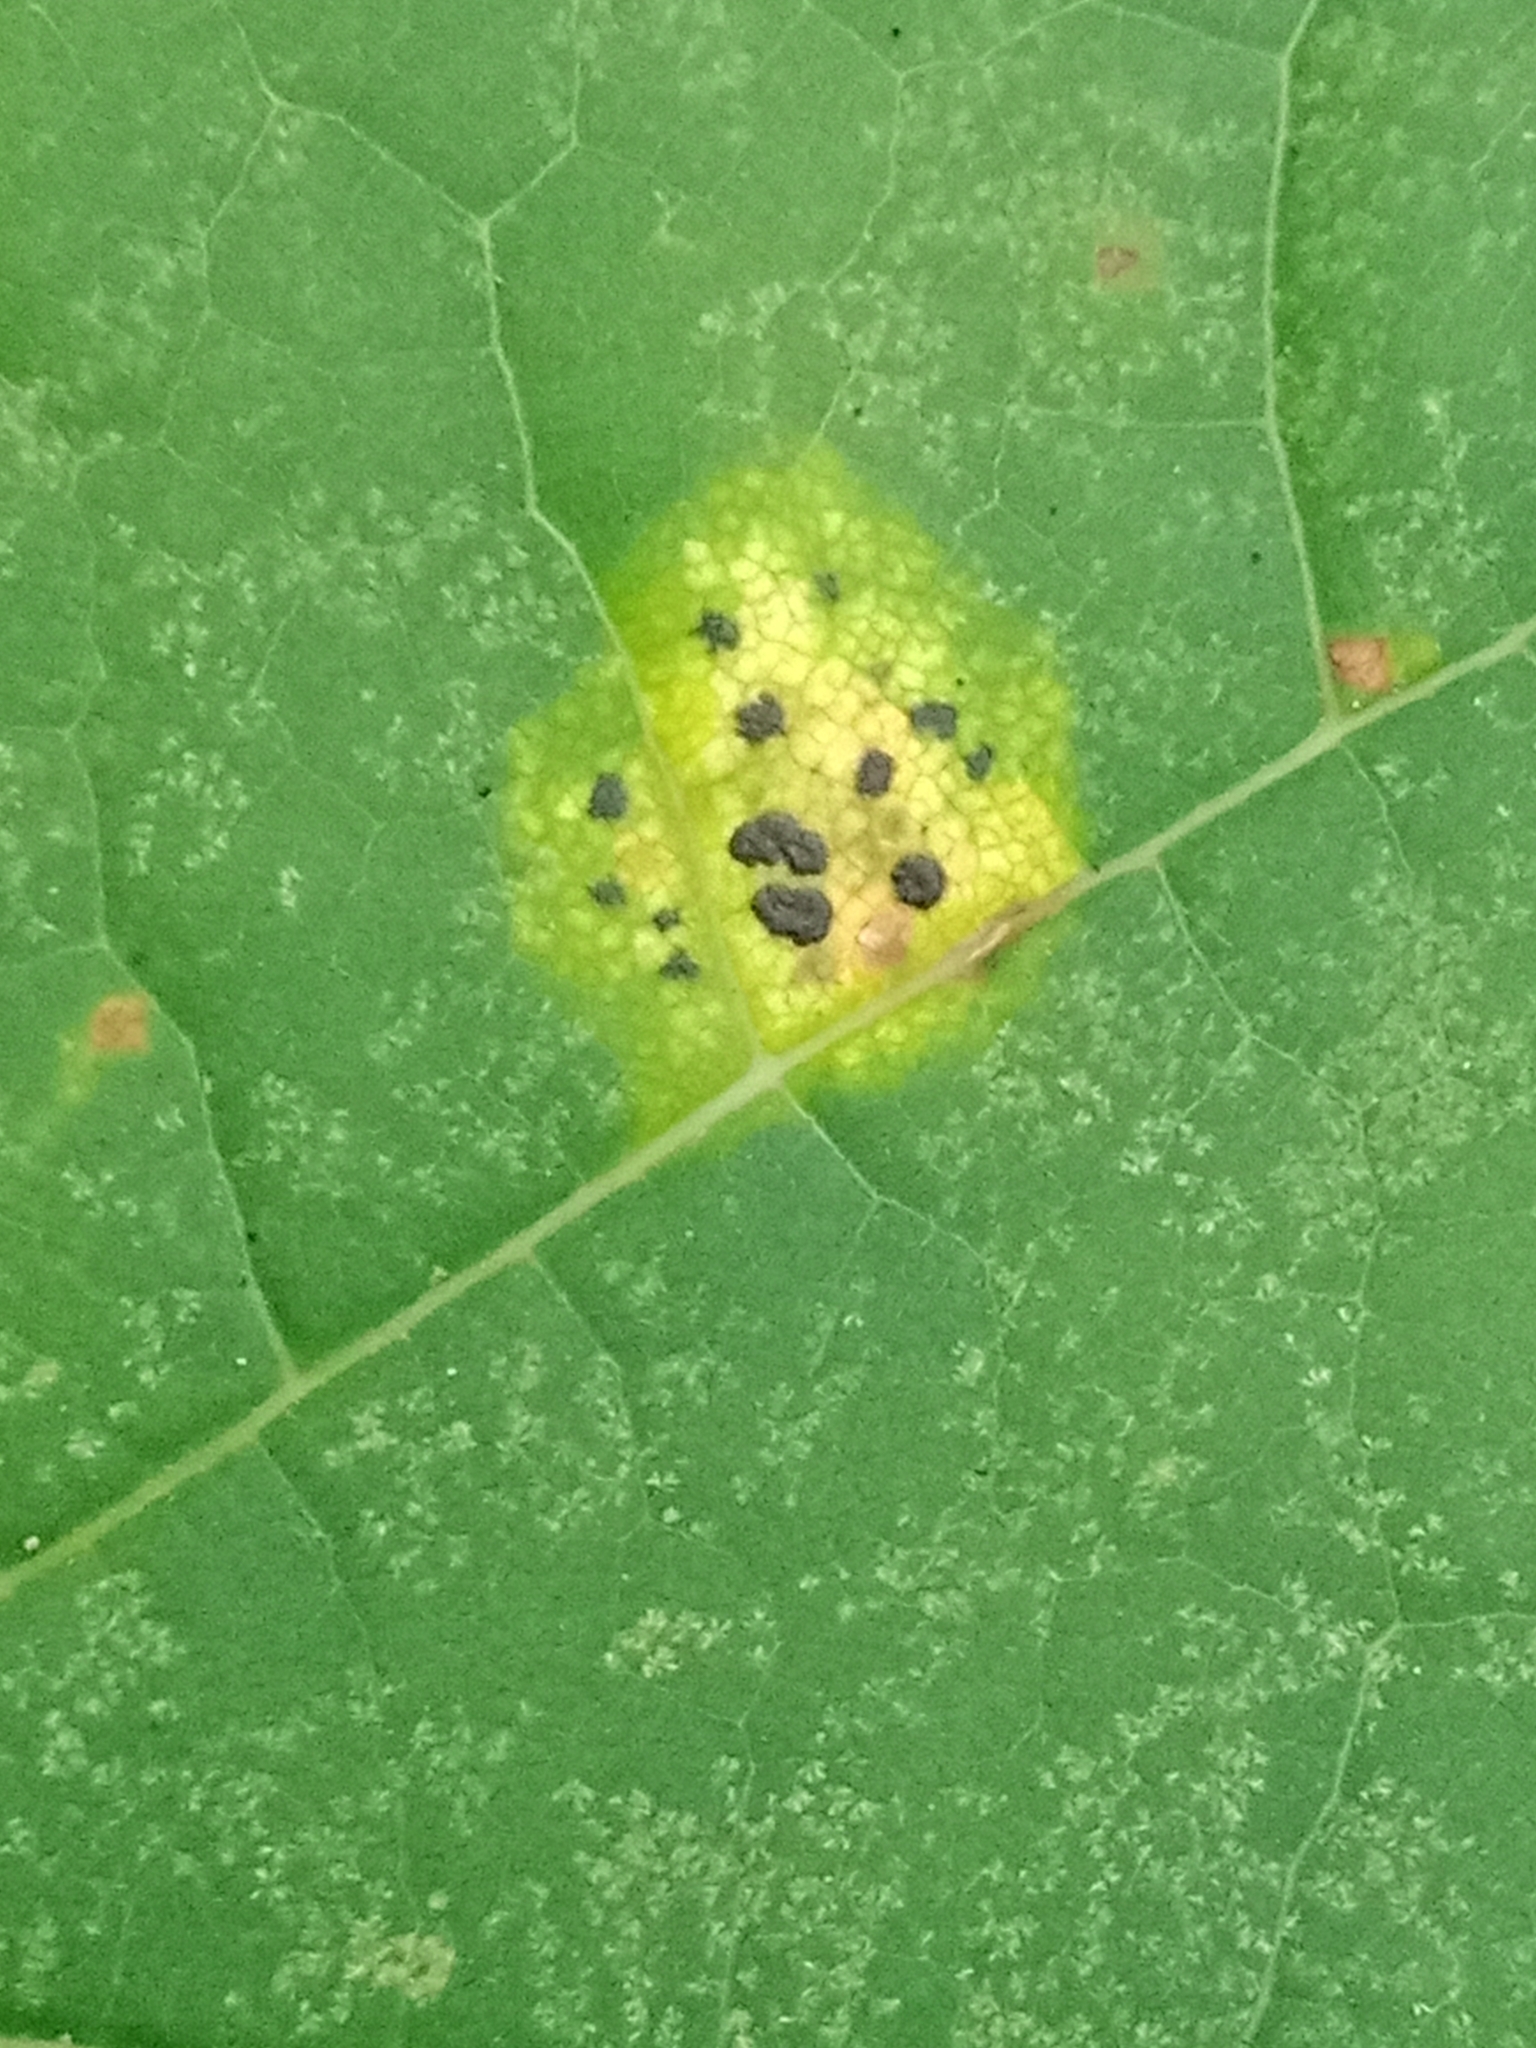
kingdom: Fungi
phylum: Ascomycota
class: Leotiomycetes
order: Rhytismatales
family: Rhytismataceae
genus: Rhytisma
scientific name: Rhytisma acerinum
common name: European tar spot
